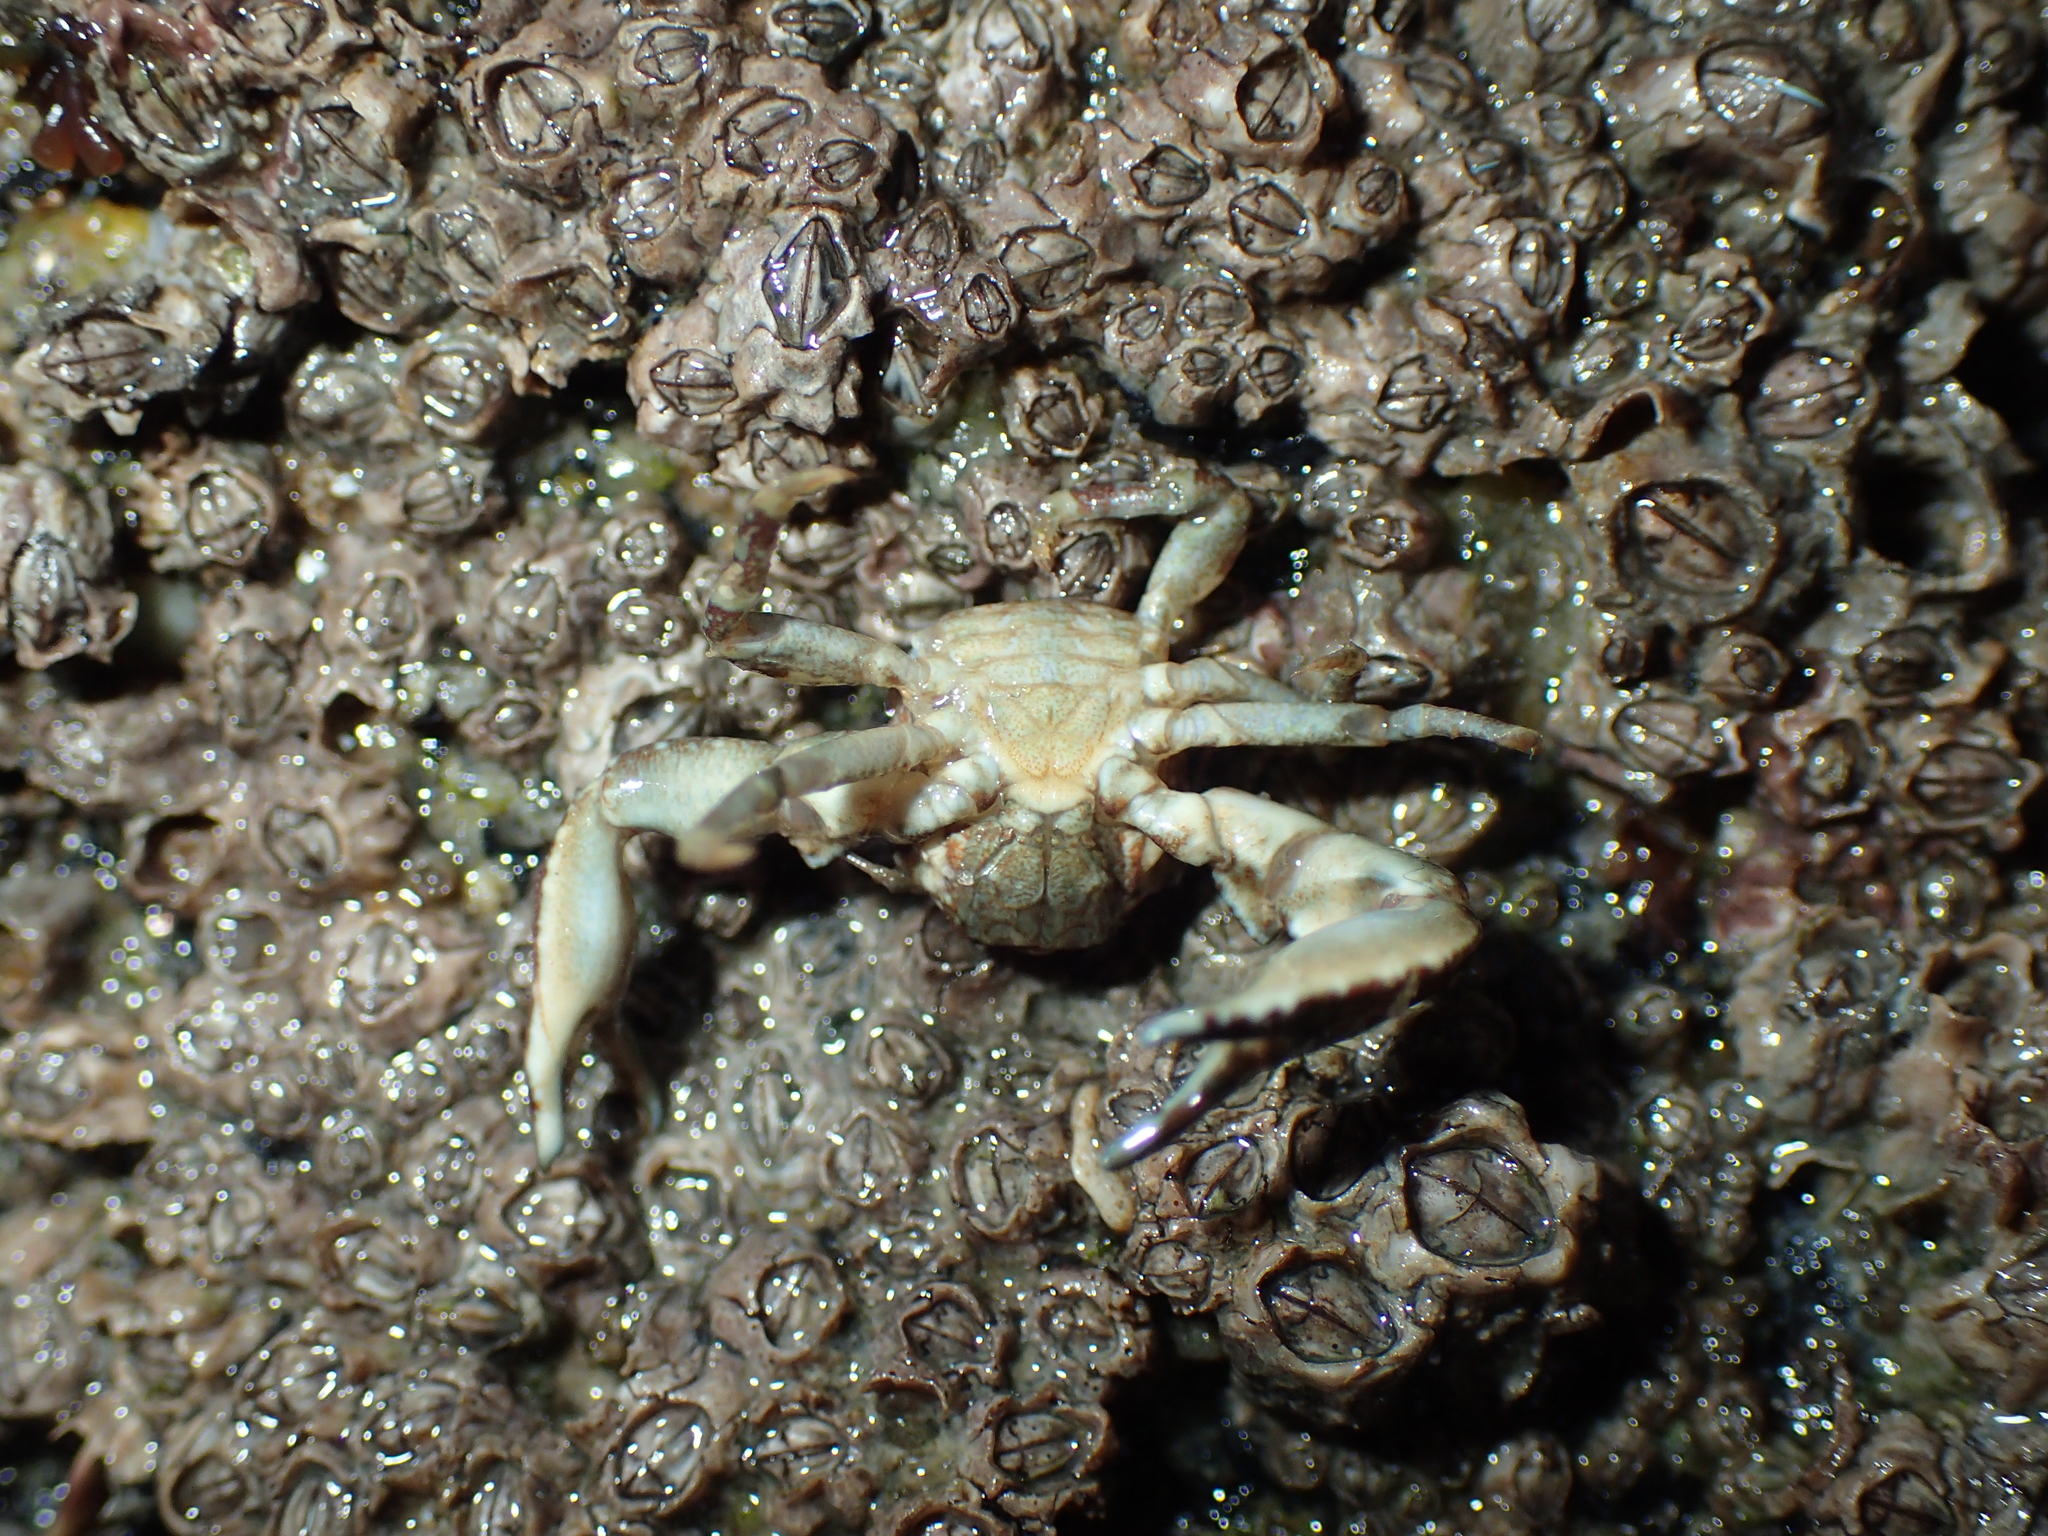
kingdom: Animalia
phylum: Arthropoda
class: Malacostraca
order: Decapoda
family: Porcellanidae
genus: Pisidia
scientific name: Pisidia longicornis
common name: Long clawed porcelain crab
